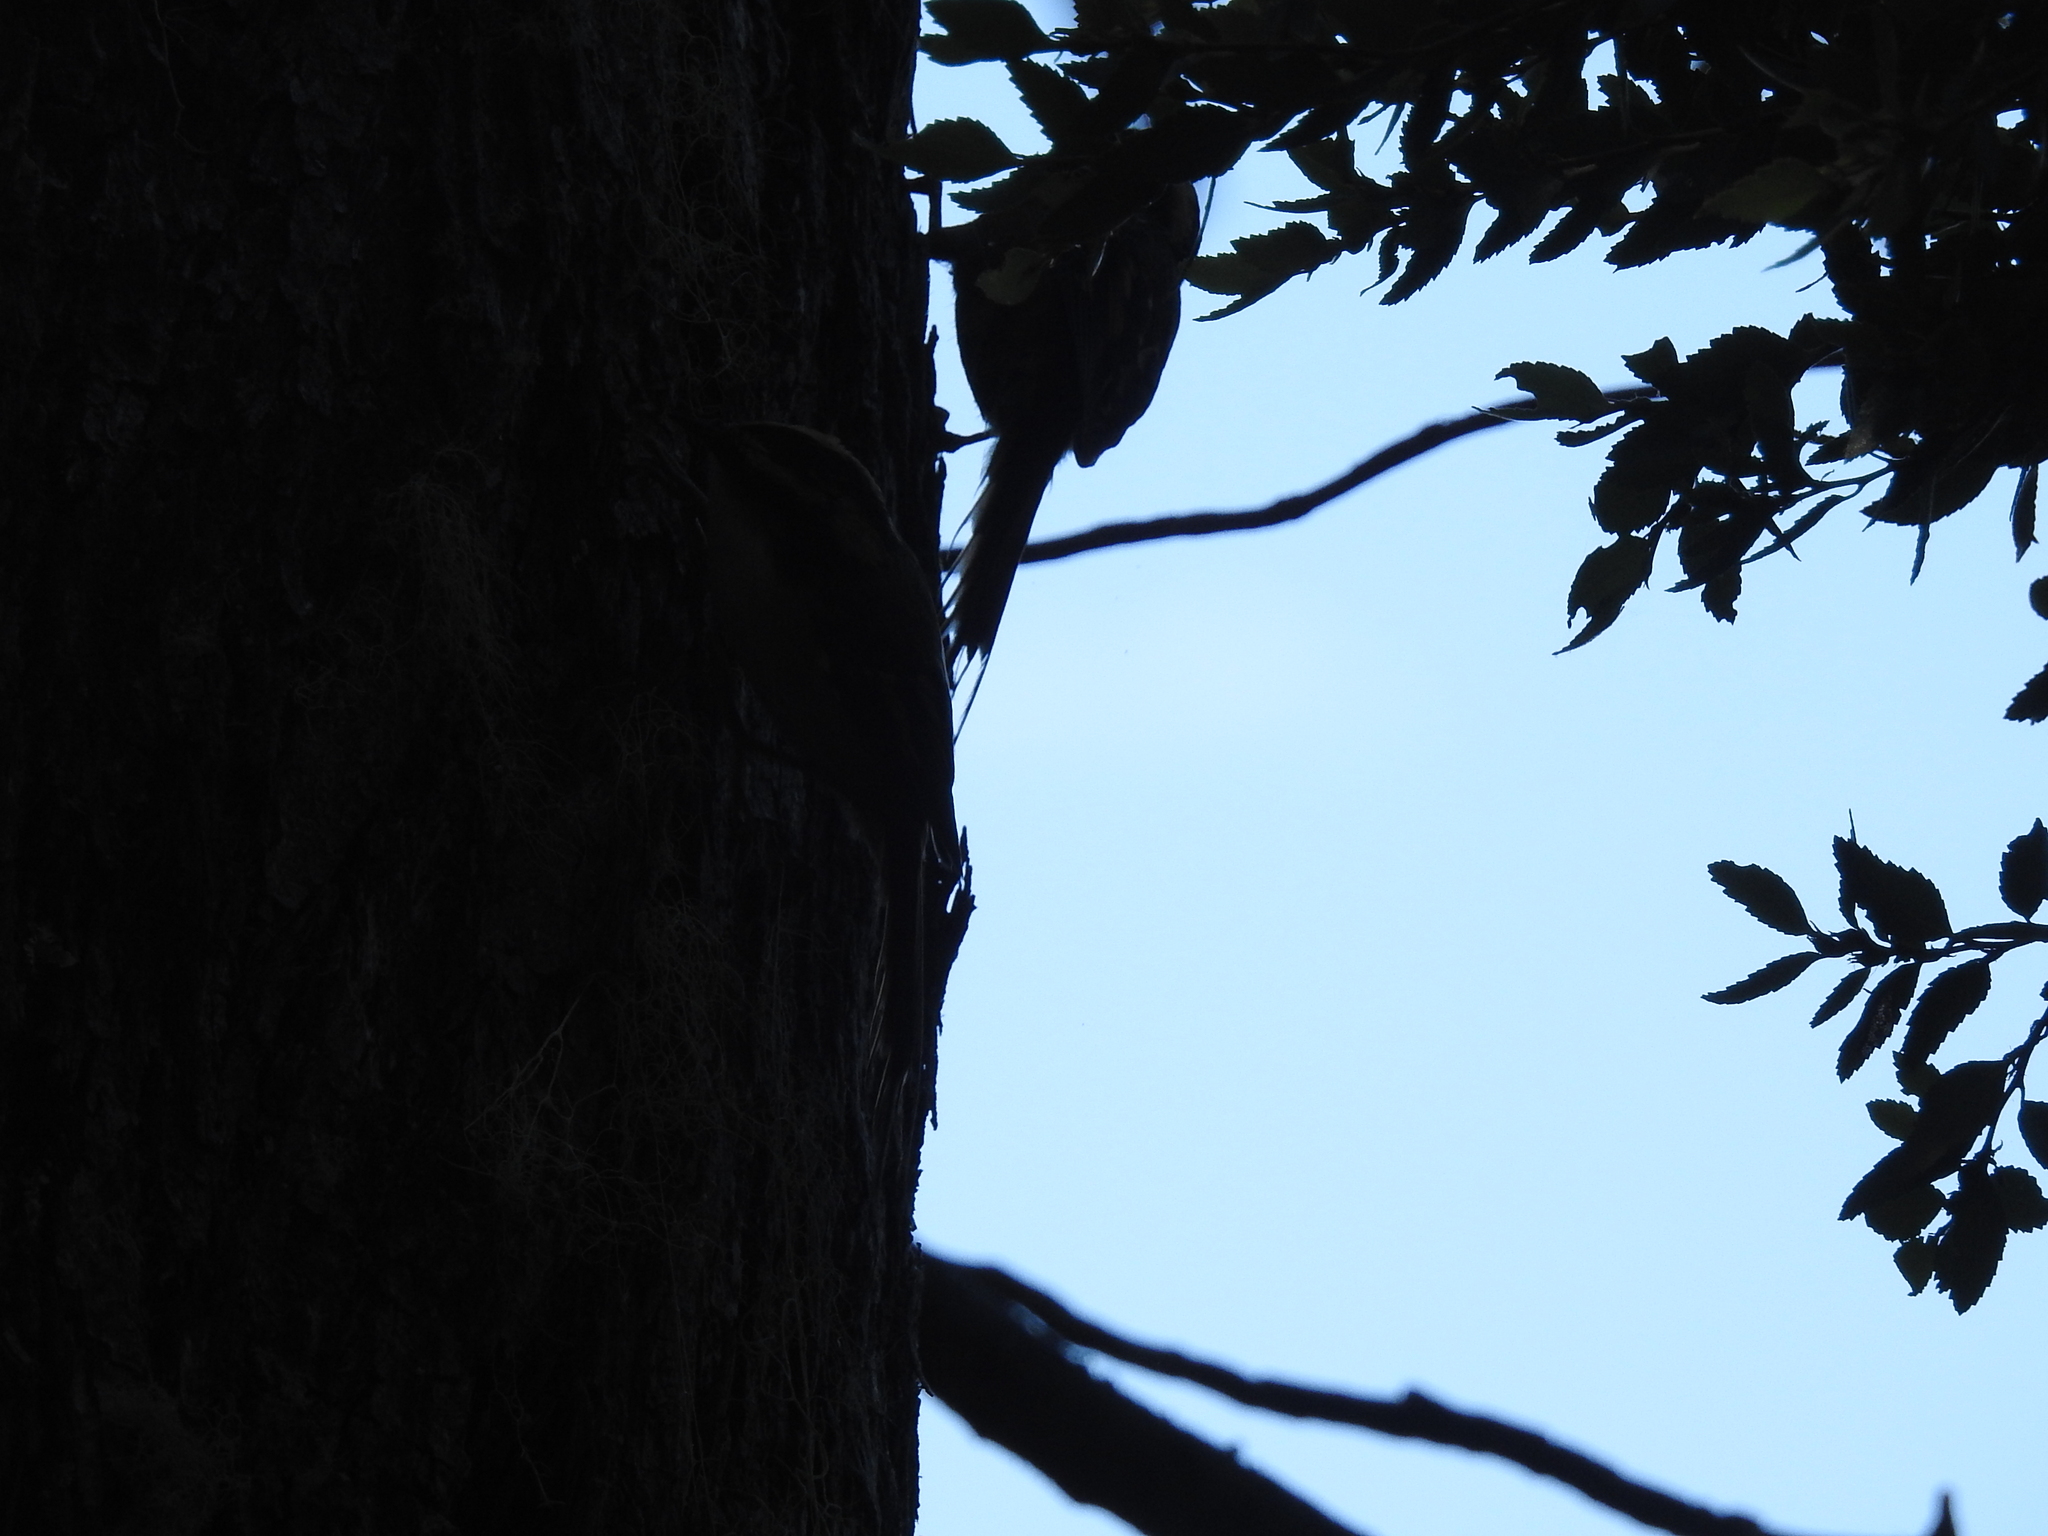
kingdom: Animalia
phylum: Chordata
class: Aves
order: Passeriformes
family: Furnariidae
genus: Aphrastura
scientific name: Aphrastura spinicauda
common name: Thorn-tailed rayadito
